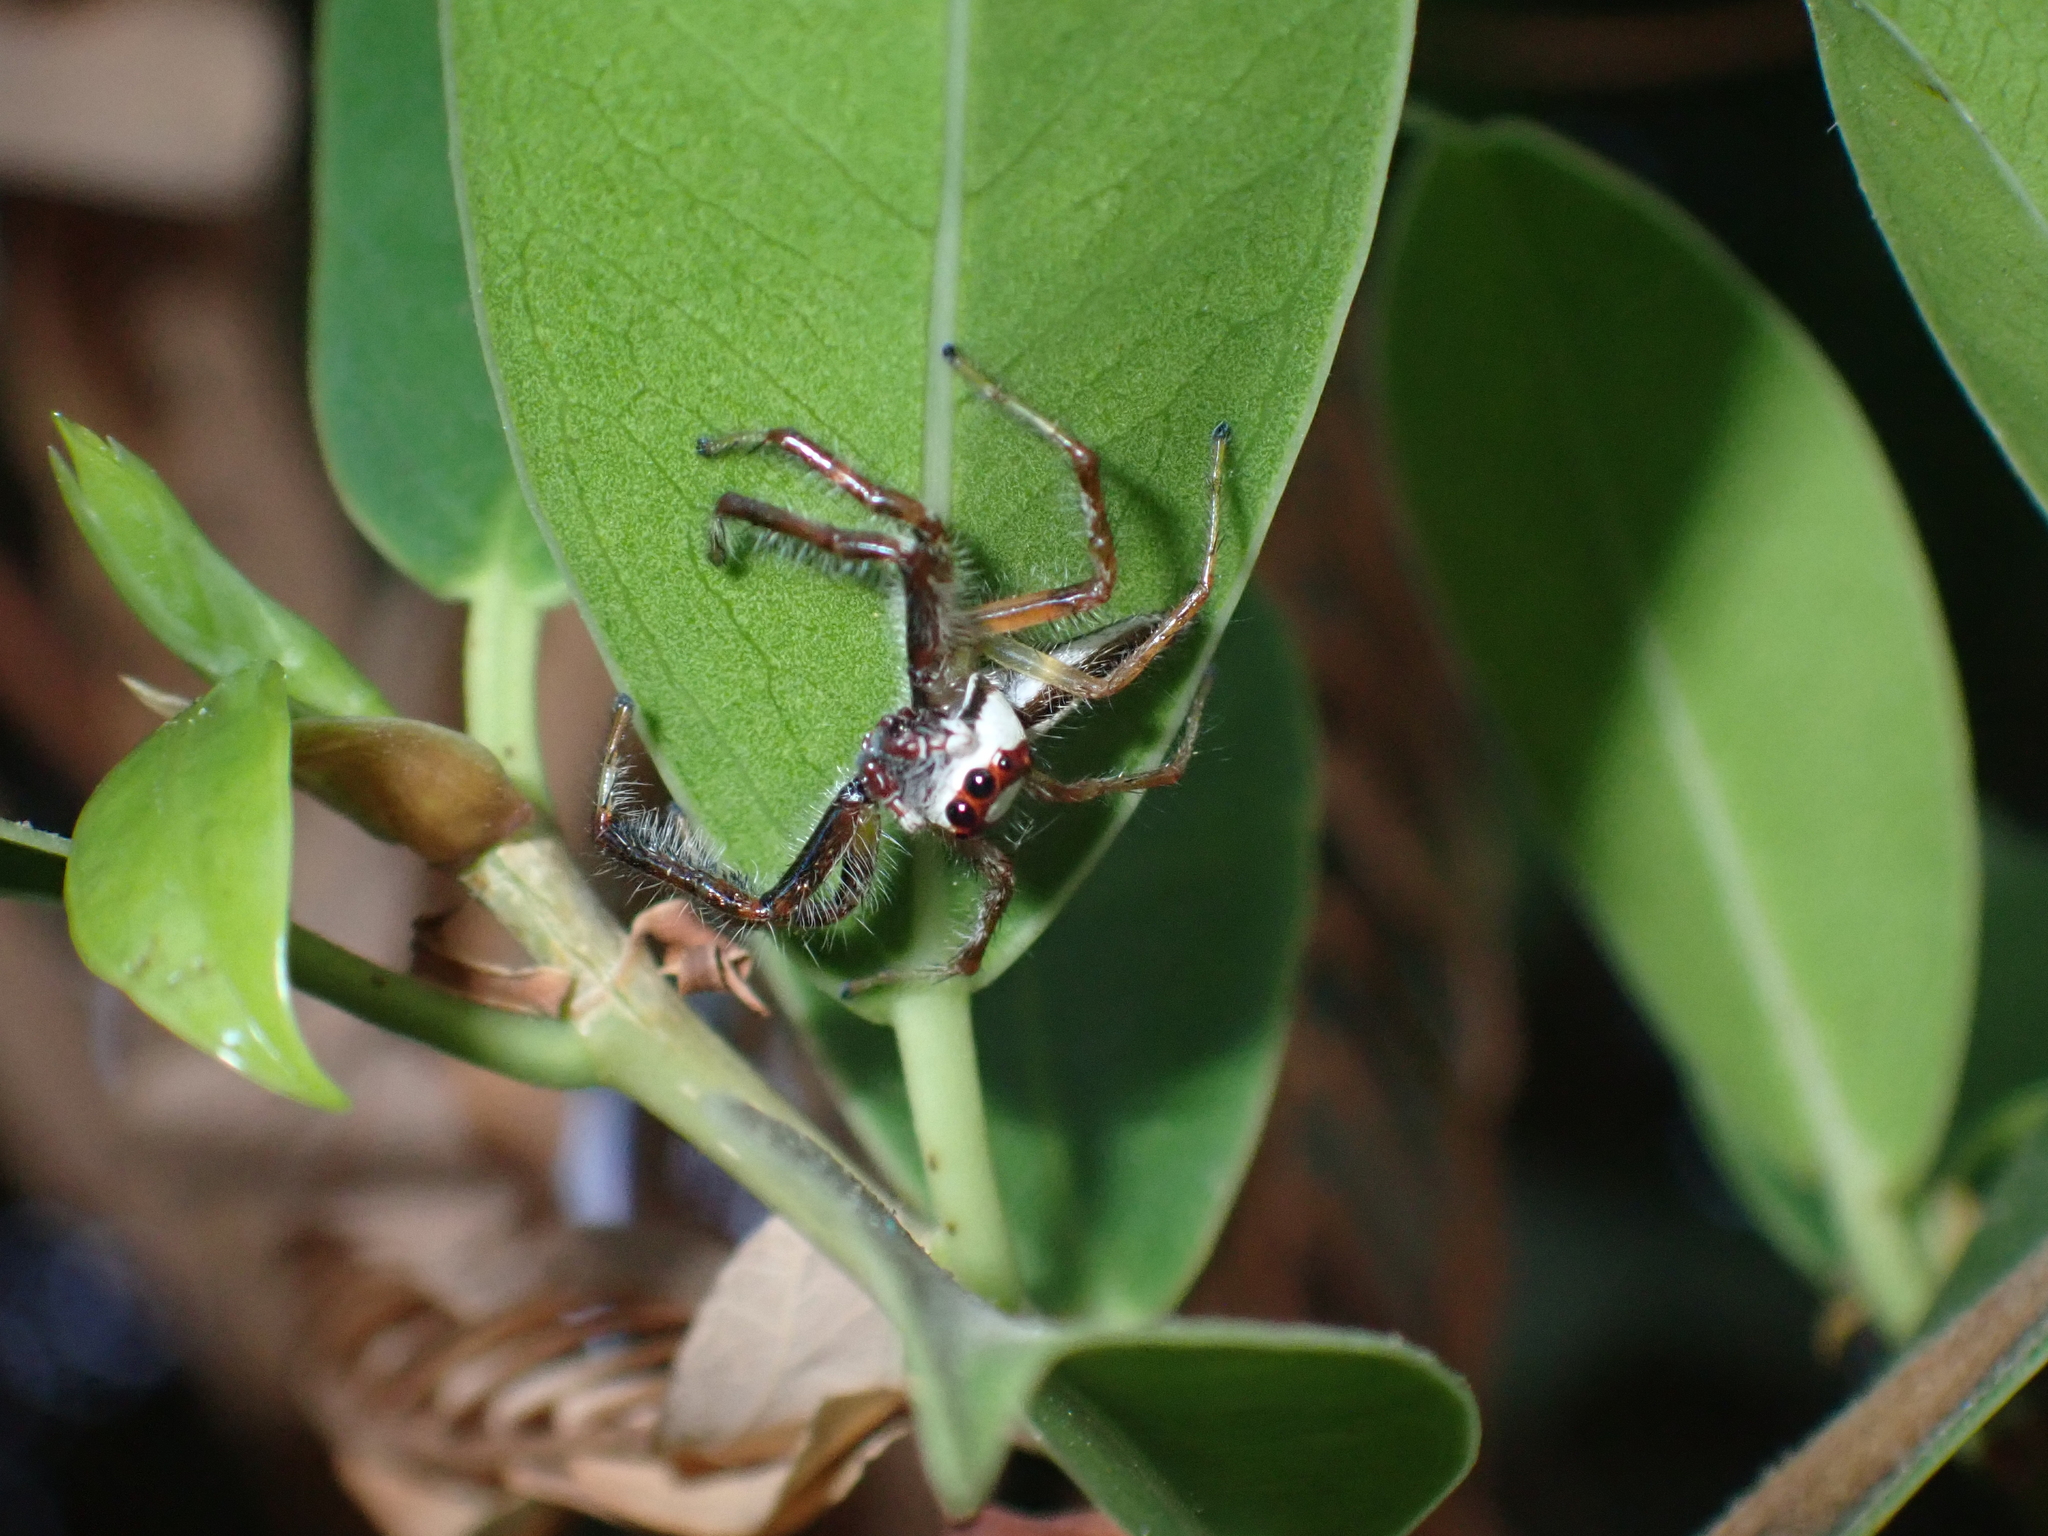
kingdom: Animalia
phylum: Arthropoda
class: Arachnida
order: Araneae
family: Salticidae
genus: Telamonia
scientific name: Telamonia dimidiata
